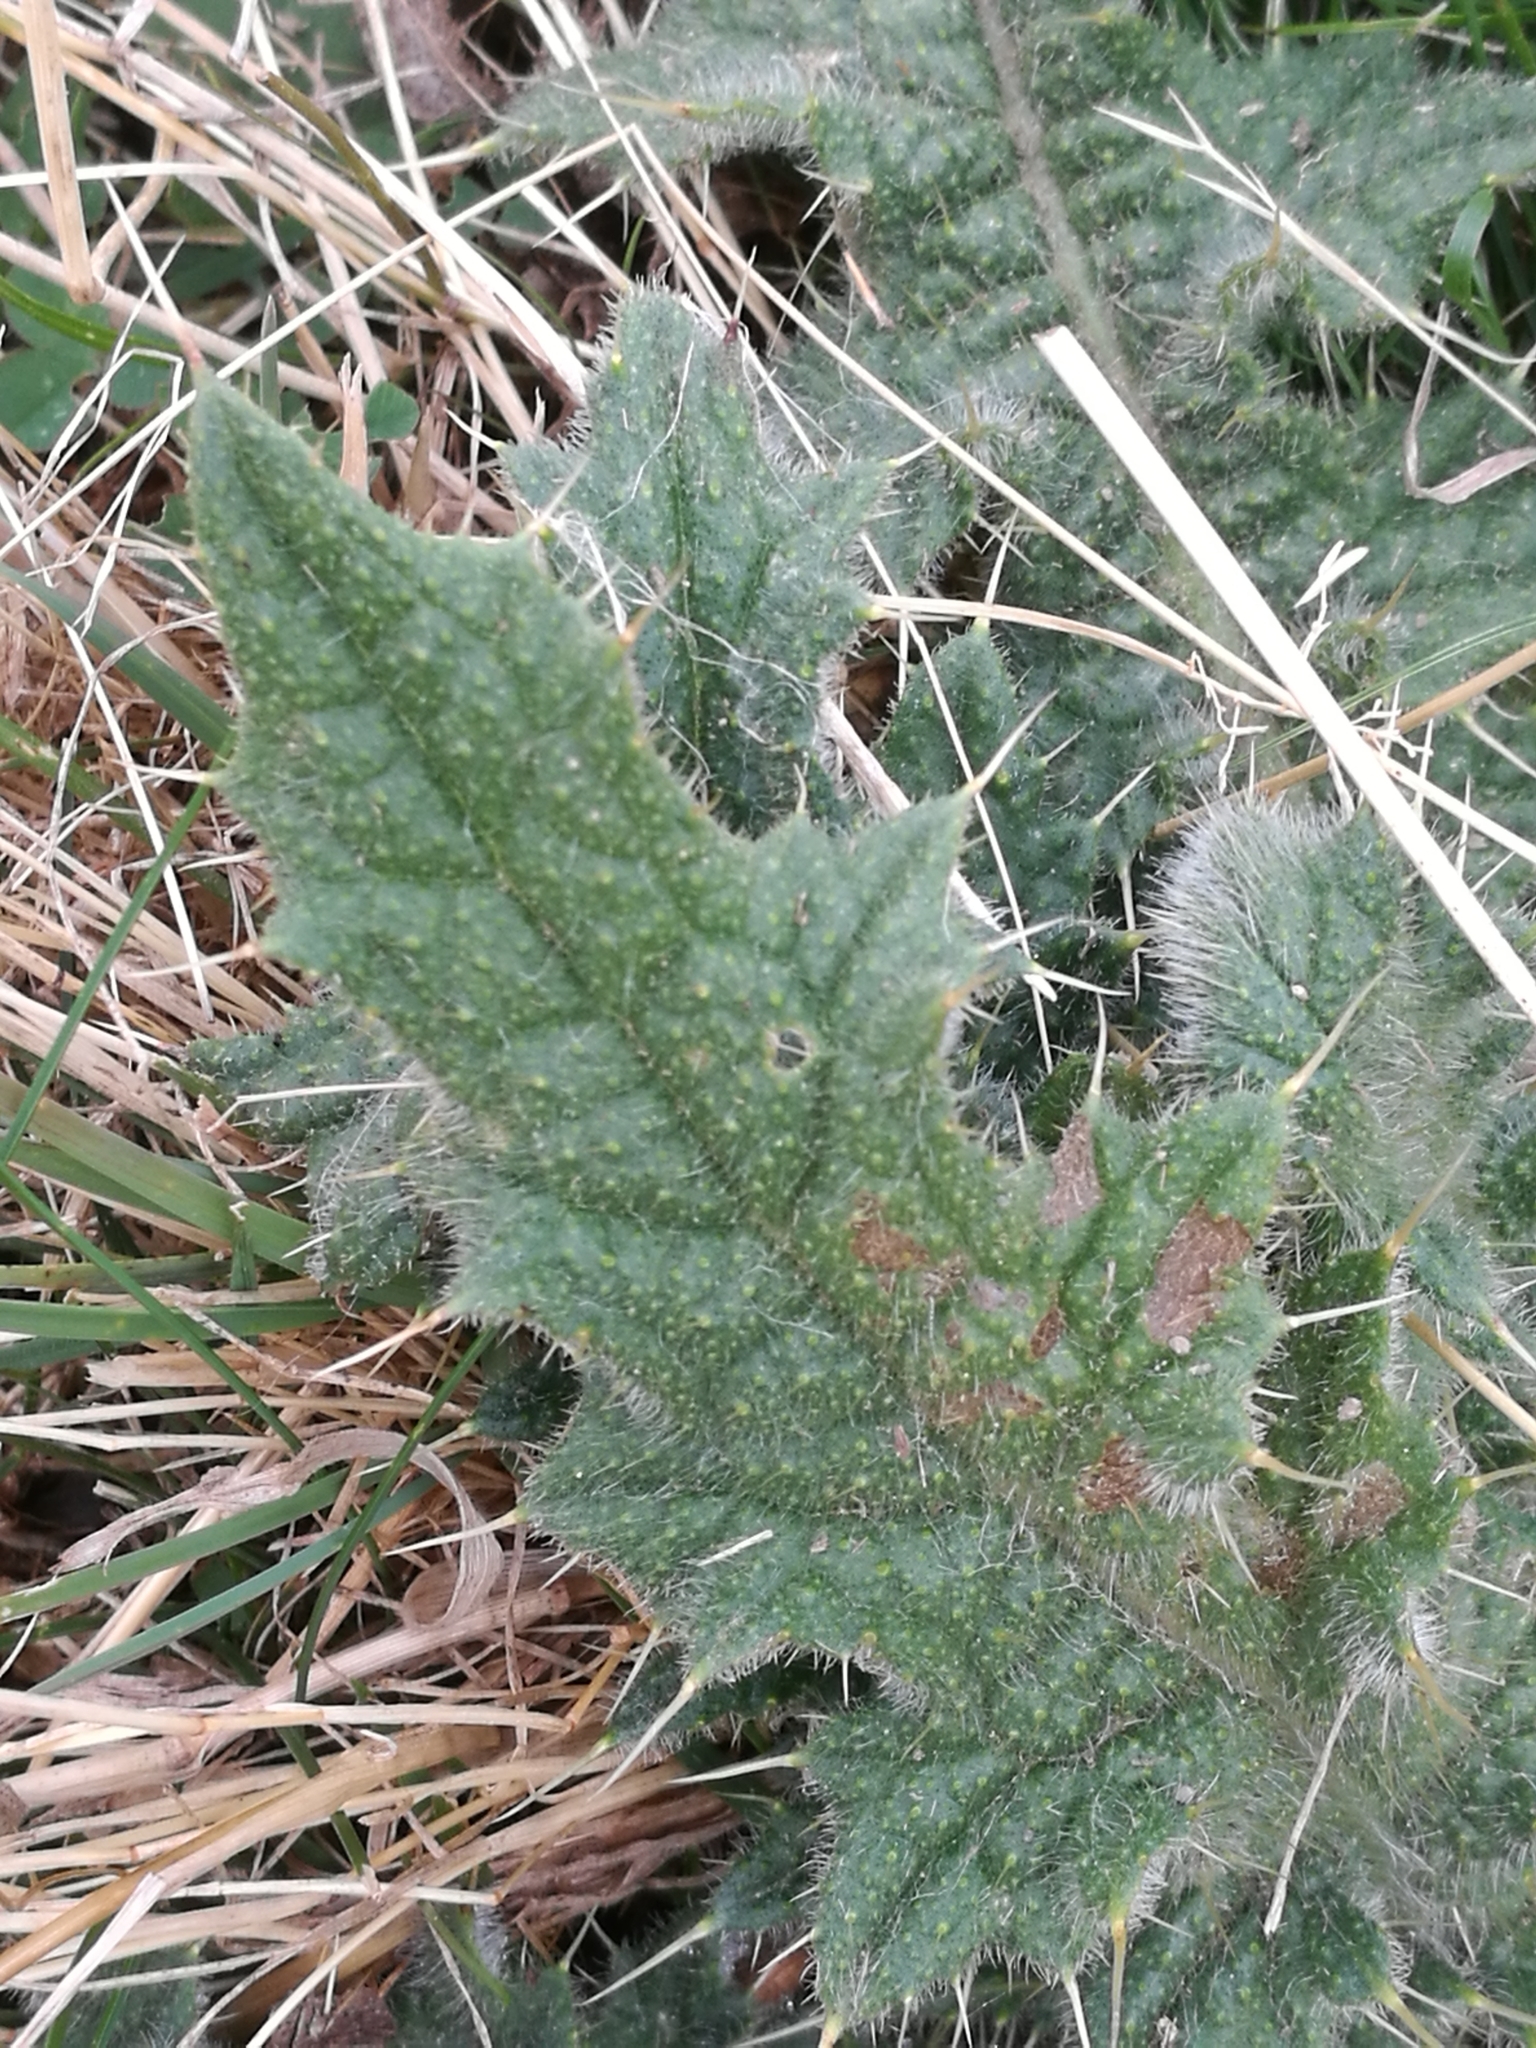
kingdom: Plantae
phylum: Tracheophyta
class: Magnoliopsida
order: Asterales
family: Asteraceae
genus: Cirsium
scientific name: Cirsium vulgare
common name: Bull thistle
